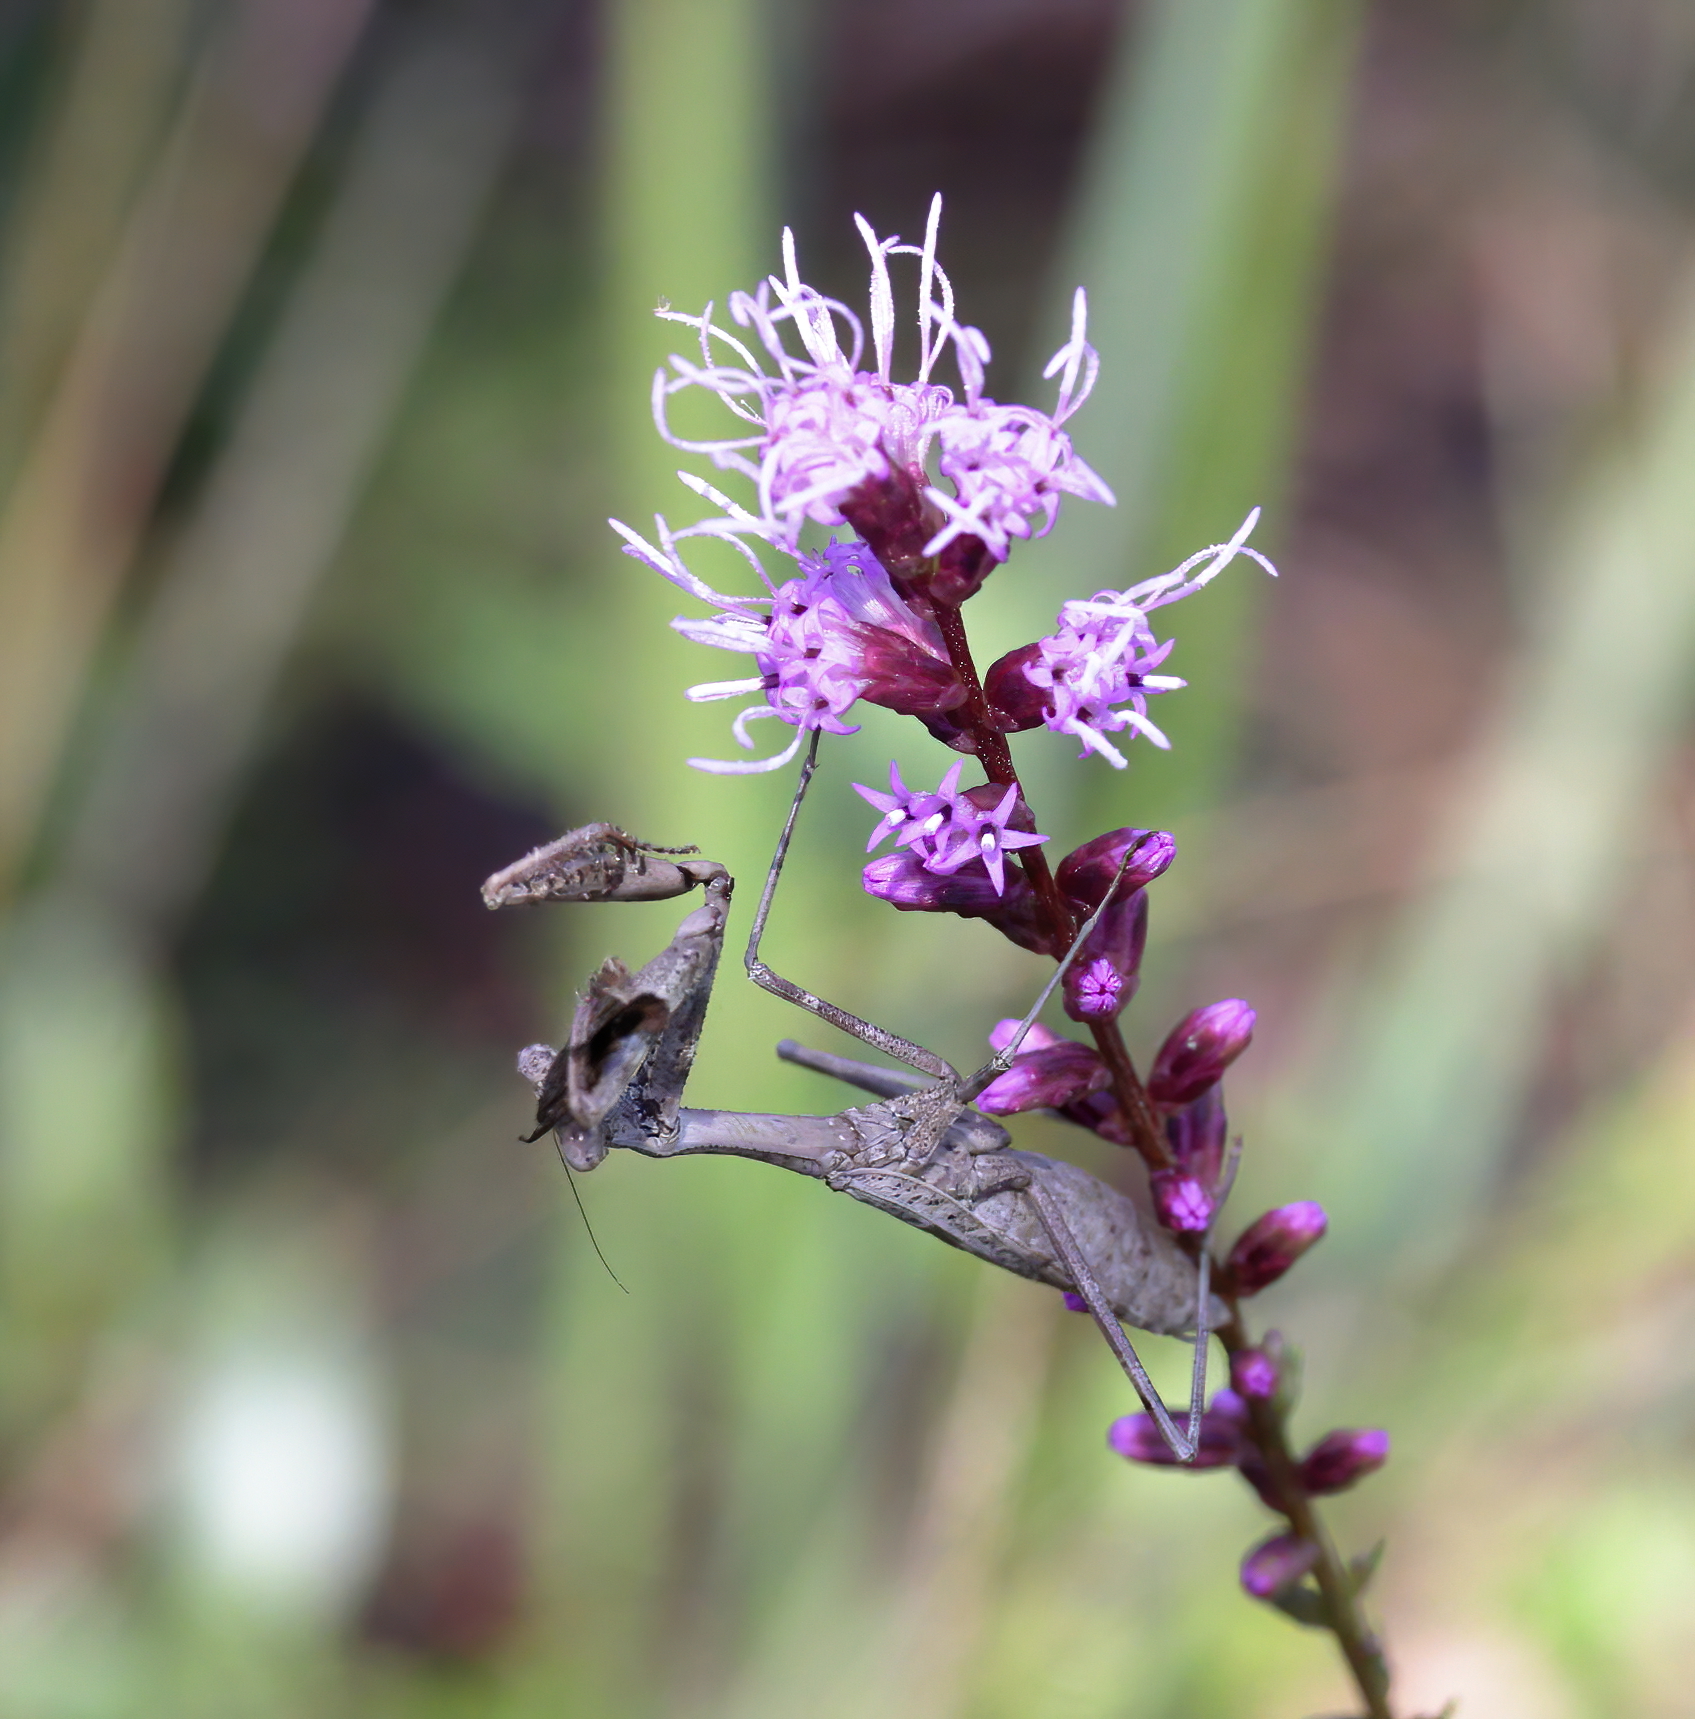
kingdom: Animalia
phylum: Arthropoda
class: Insecta
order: Mantodea
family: Mantidae
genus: Stagmomantis
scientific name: Stagmomantis carolina
